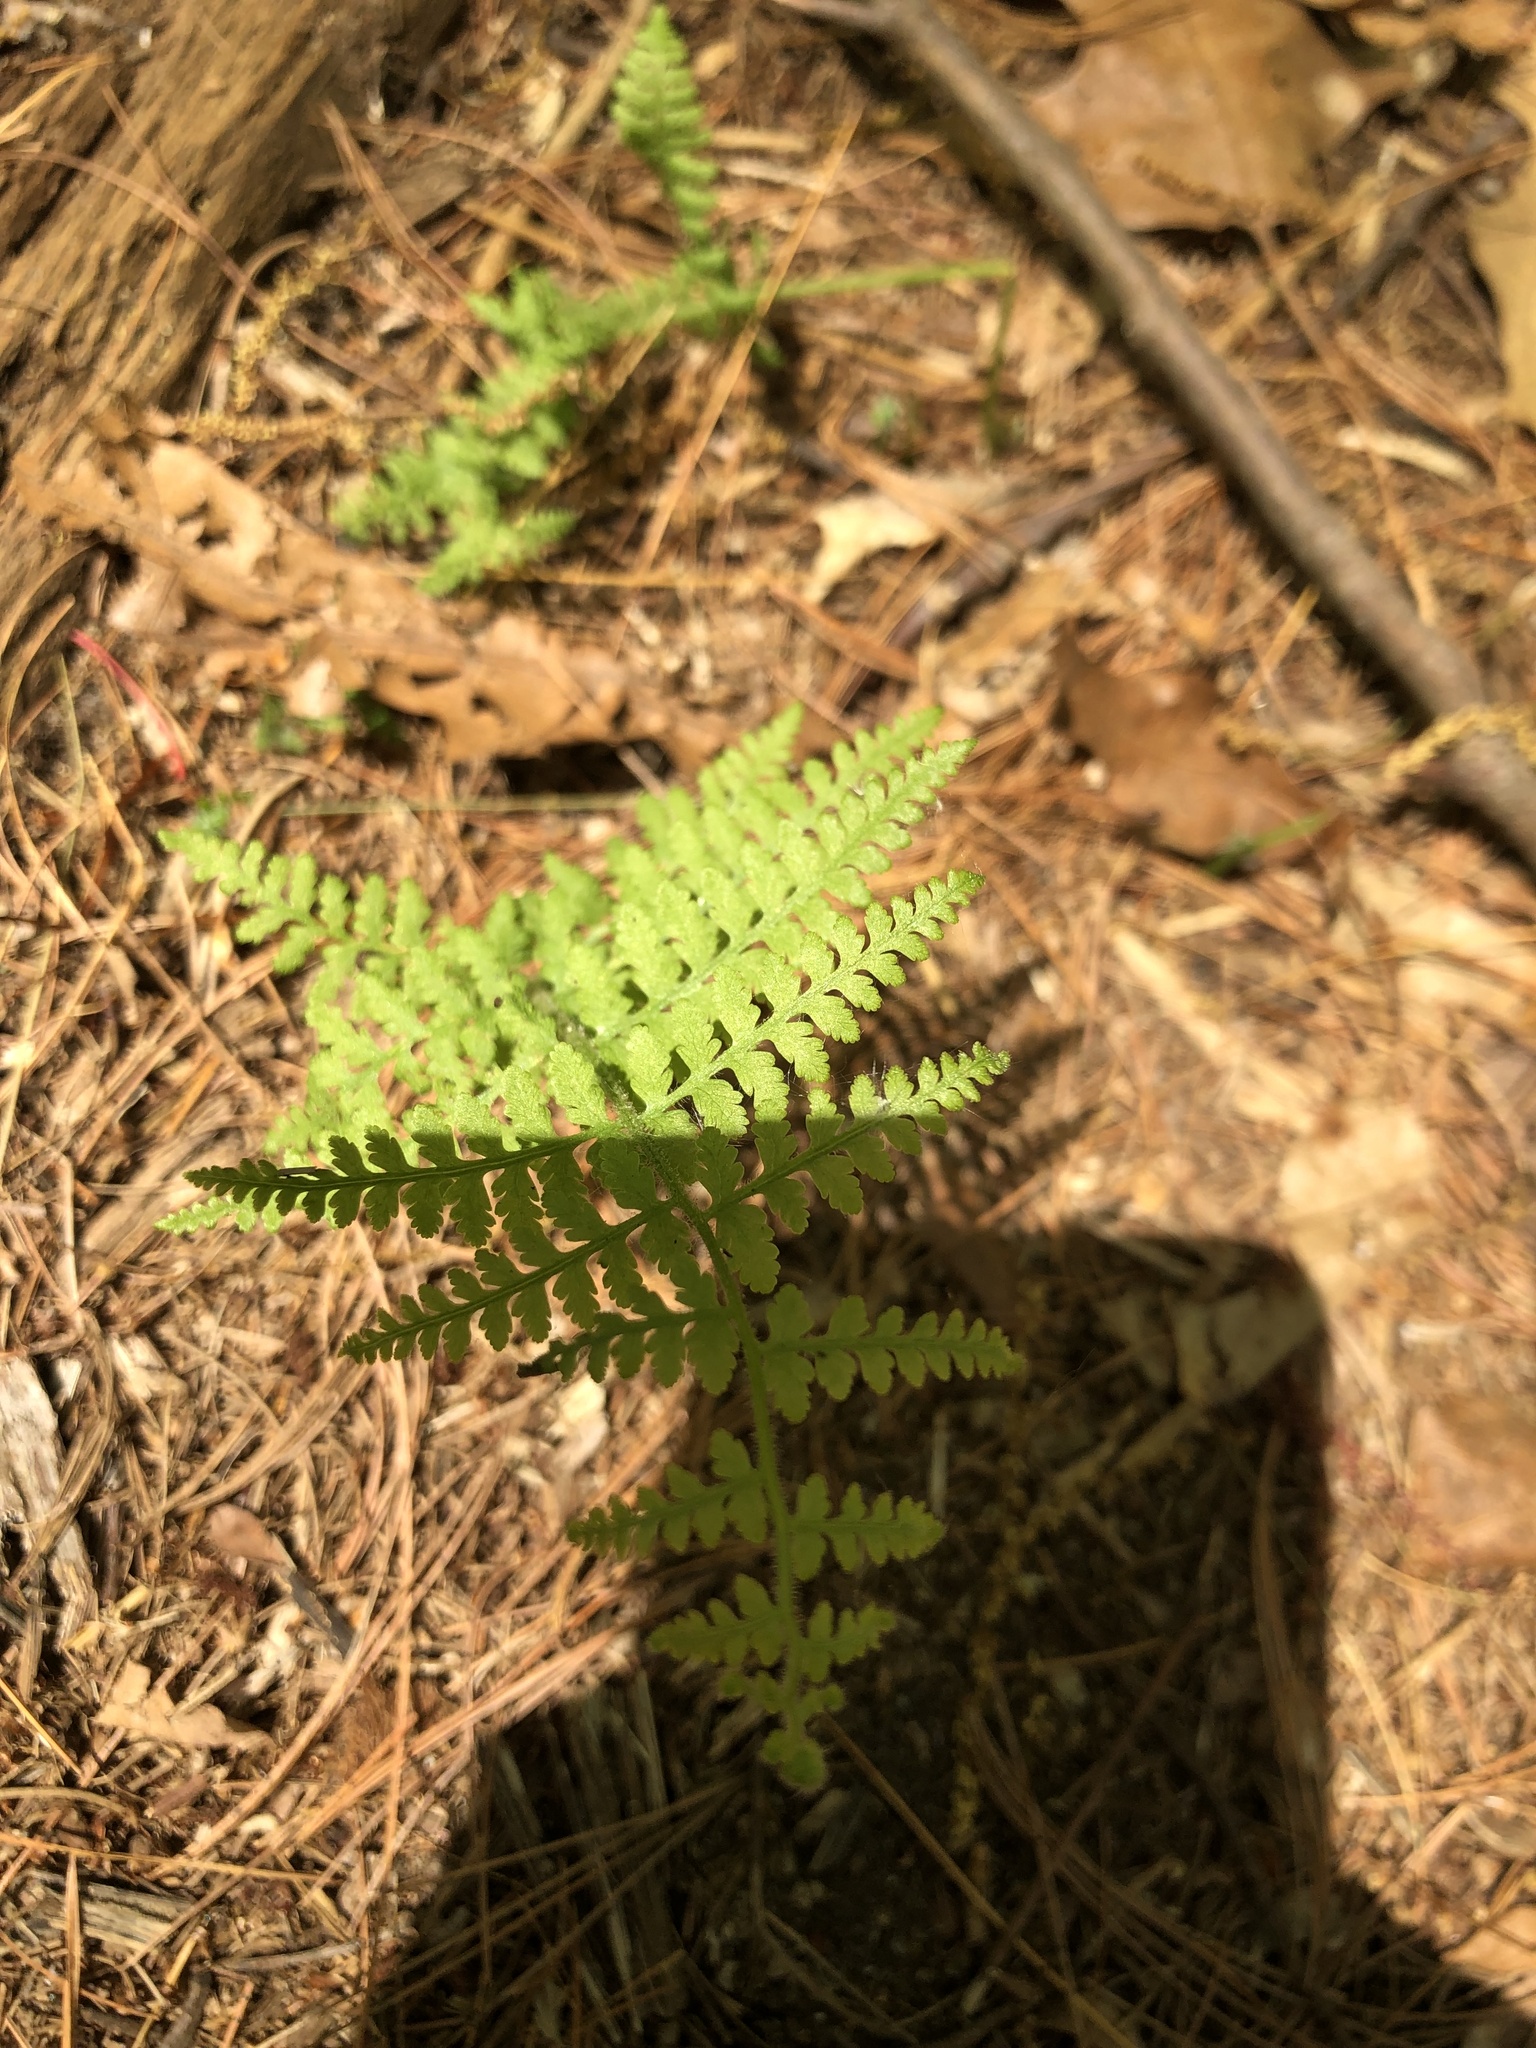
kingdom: Plantae
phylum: Tracheophyta
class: Polypodiopsida
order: Polypodiales
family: Dennstaedtiaceae
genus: Sitobolium
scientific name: Sitobolium punctilobum
